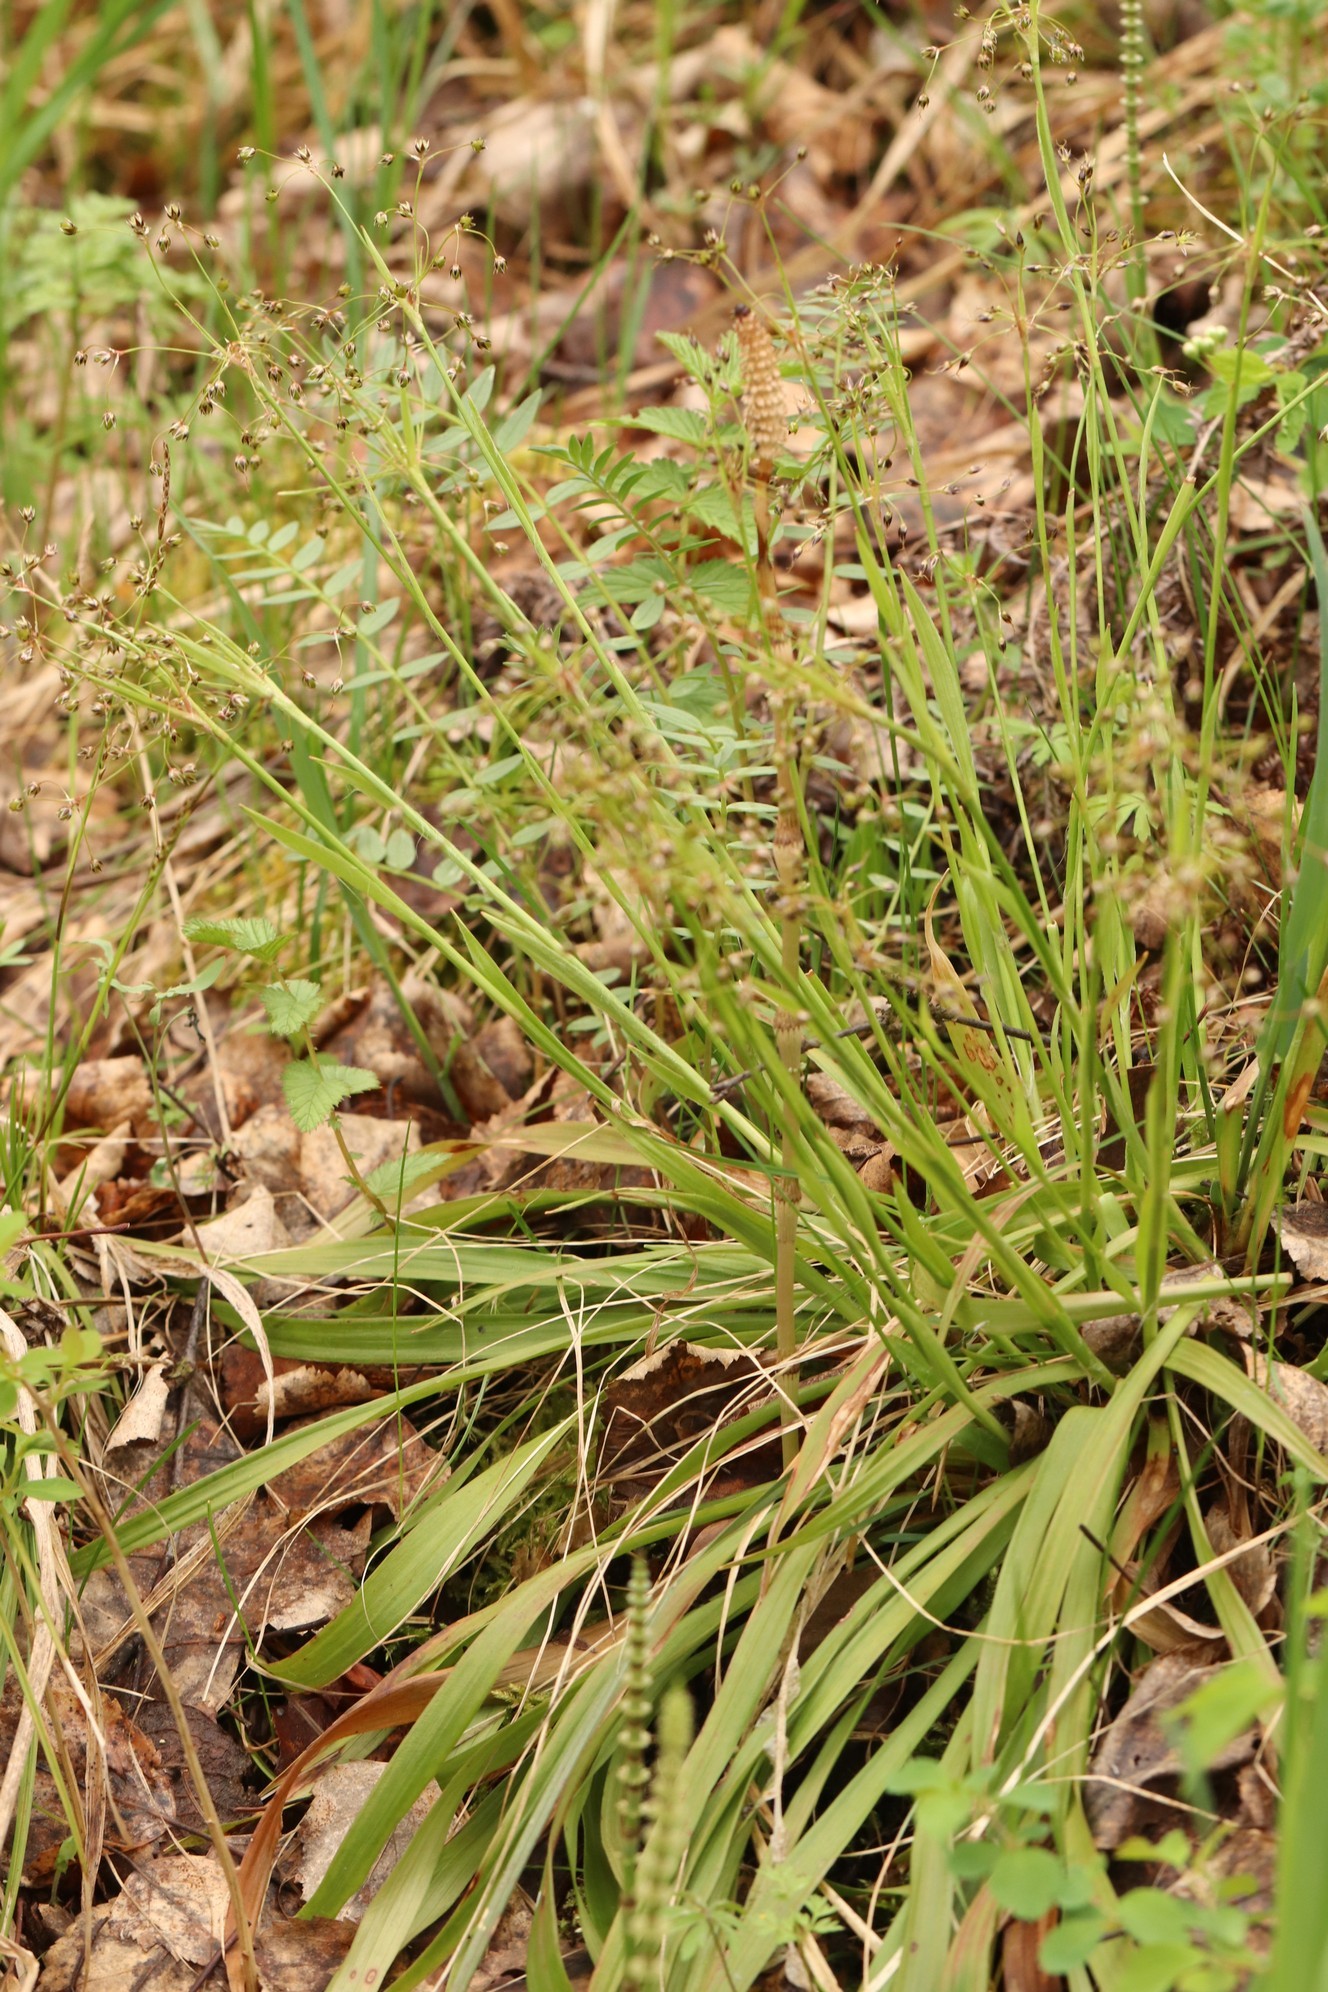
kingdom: Plantae
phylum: Tracheophyta
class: Liliopsida
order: Poales
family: Juncaceae
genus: Luzula
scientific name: Luzula pilosa
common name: Hairy wood-rush
